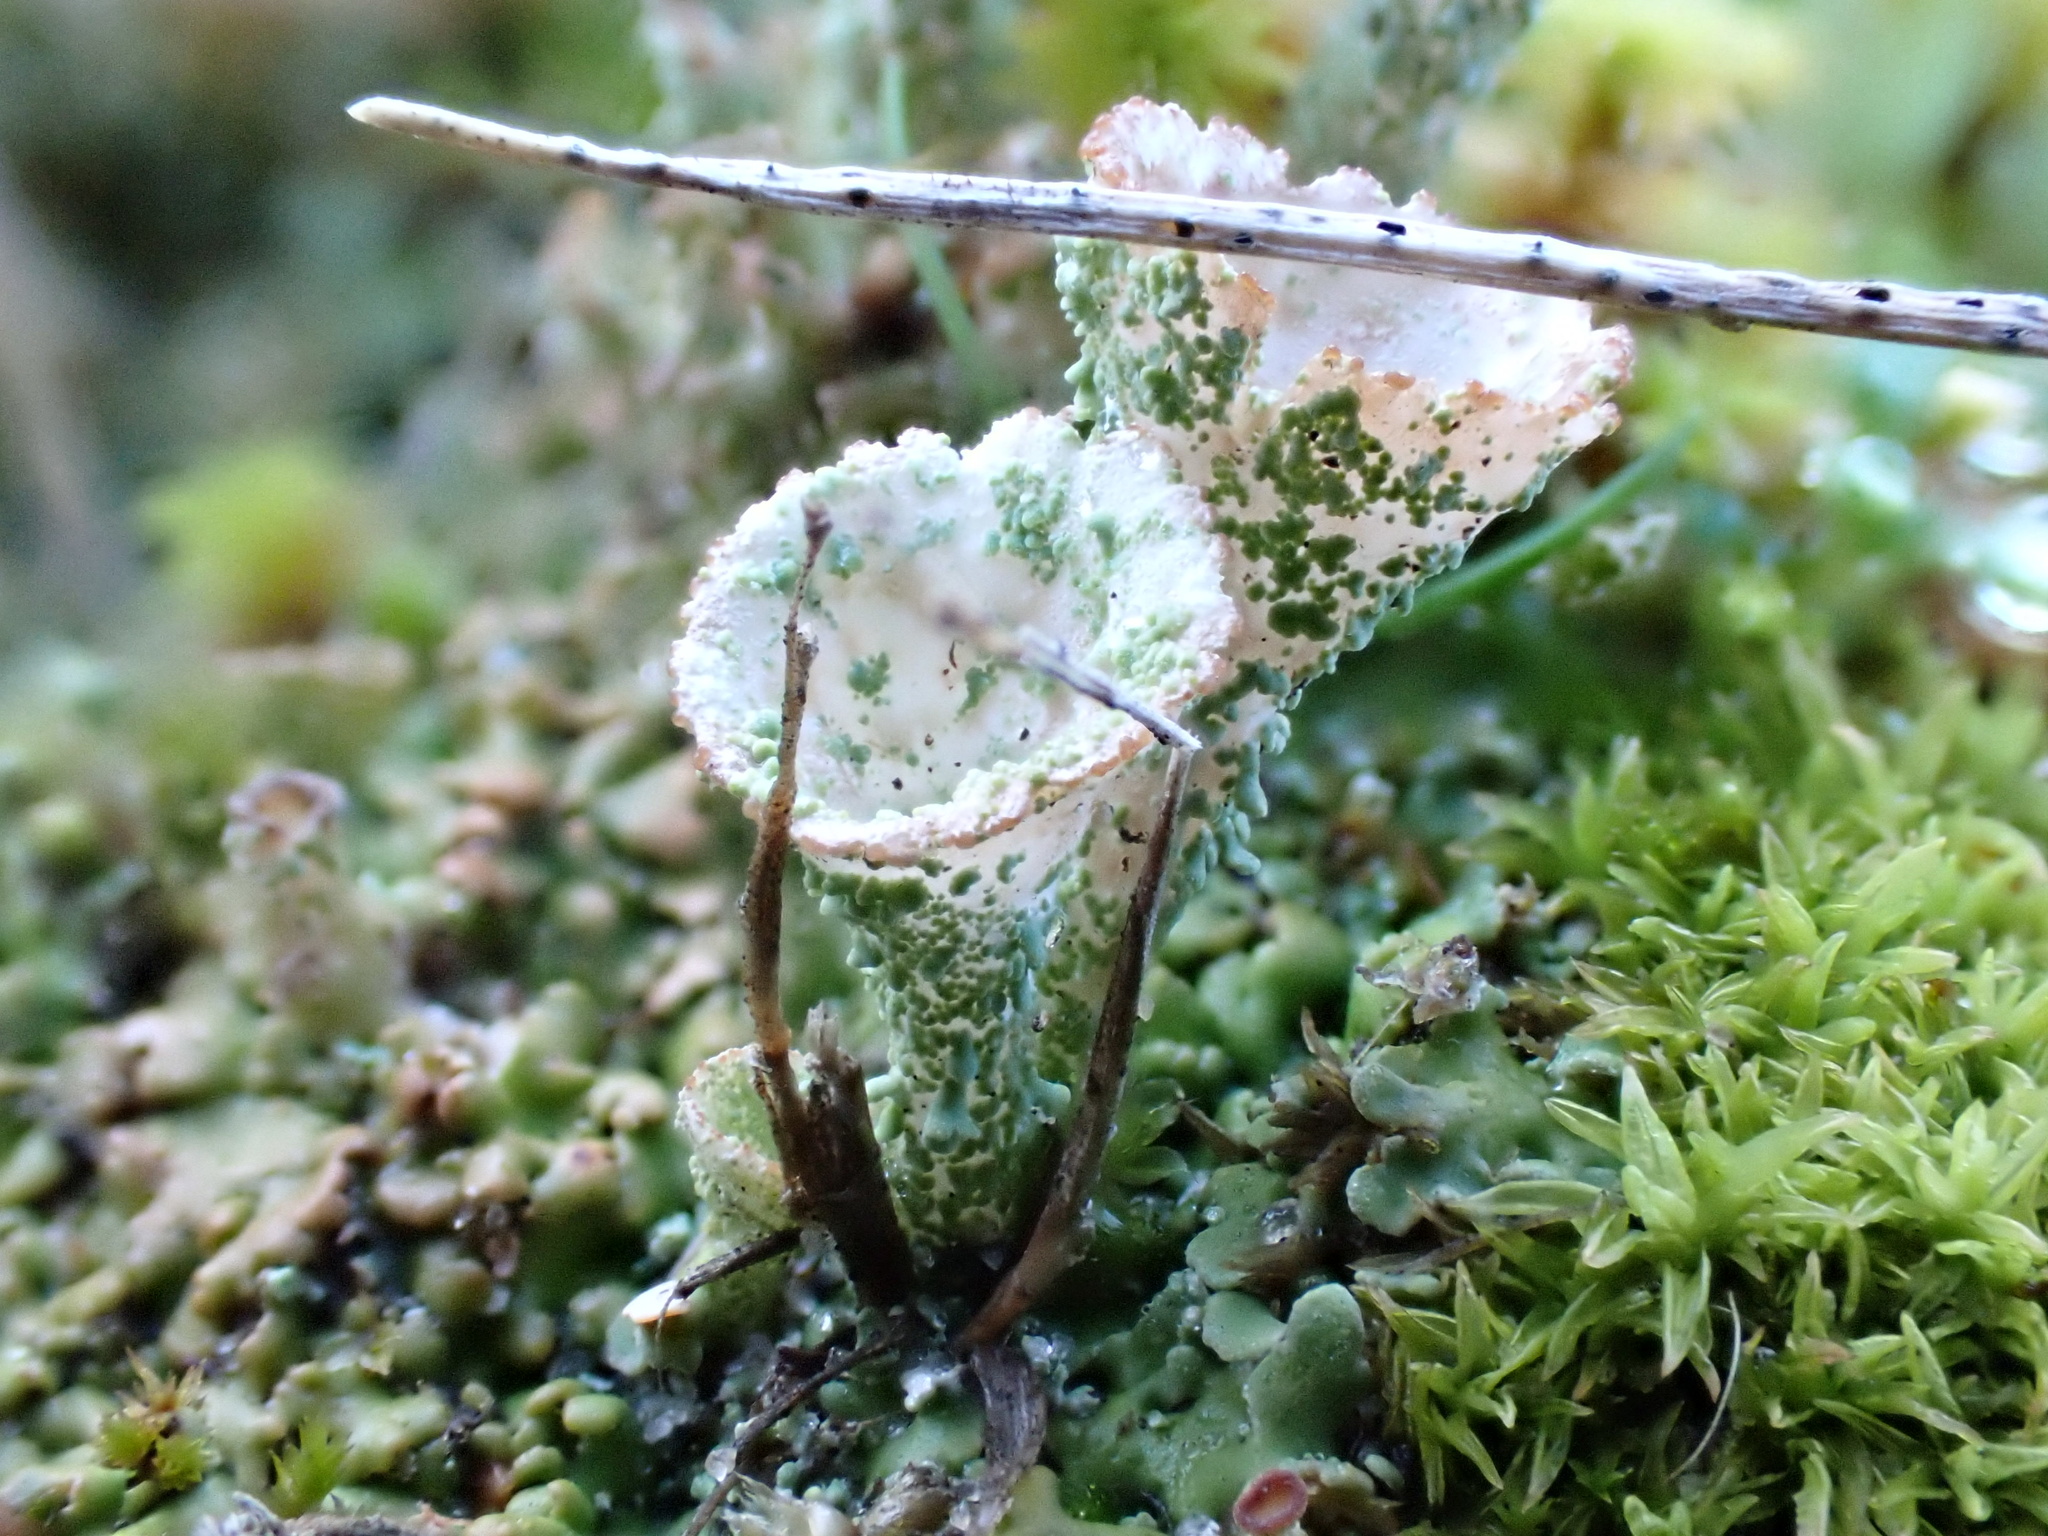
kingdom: Fungi
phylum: Ascomycota
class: Lecanoromycetes
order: Lecanorales
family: Cladoniaceae
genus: Cladonia
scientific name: Cladonia pocillum
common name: Rosette pixie-cup lichen
